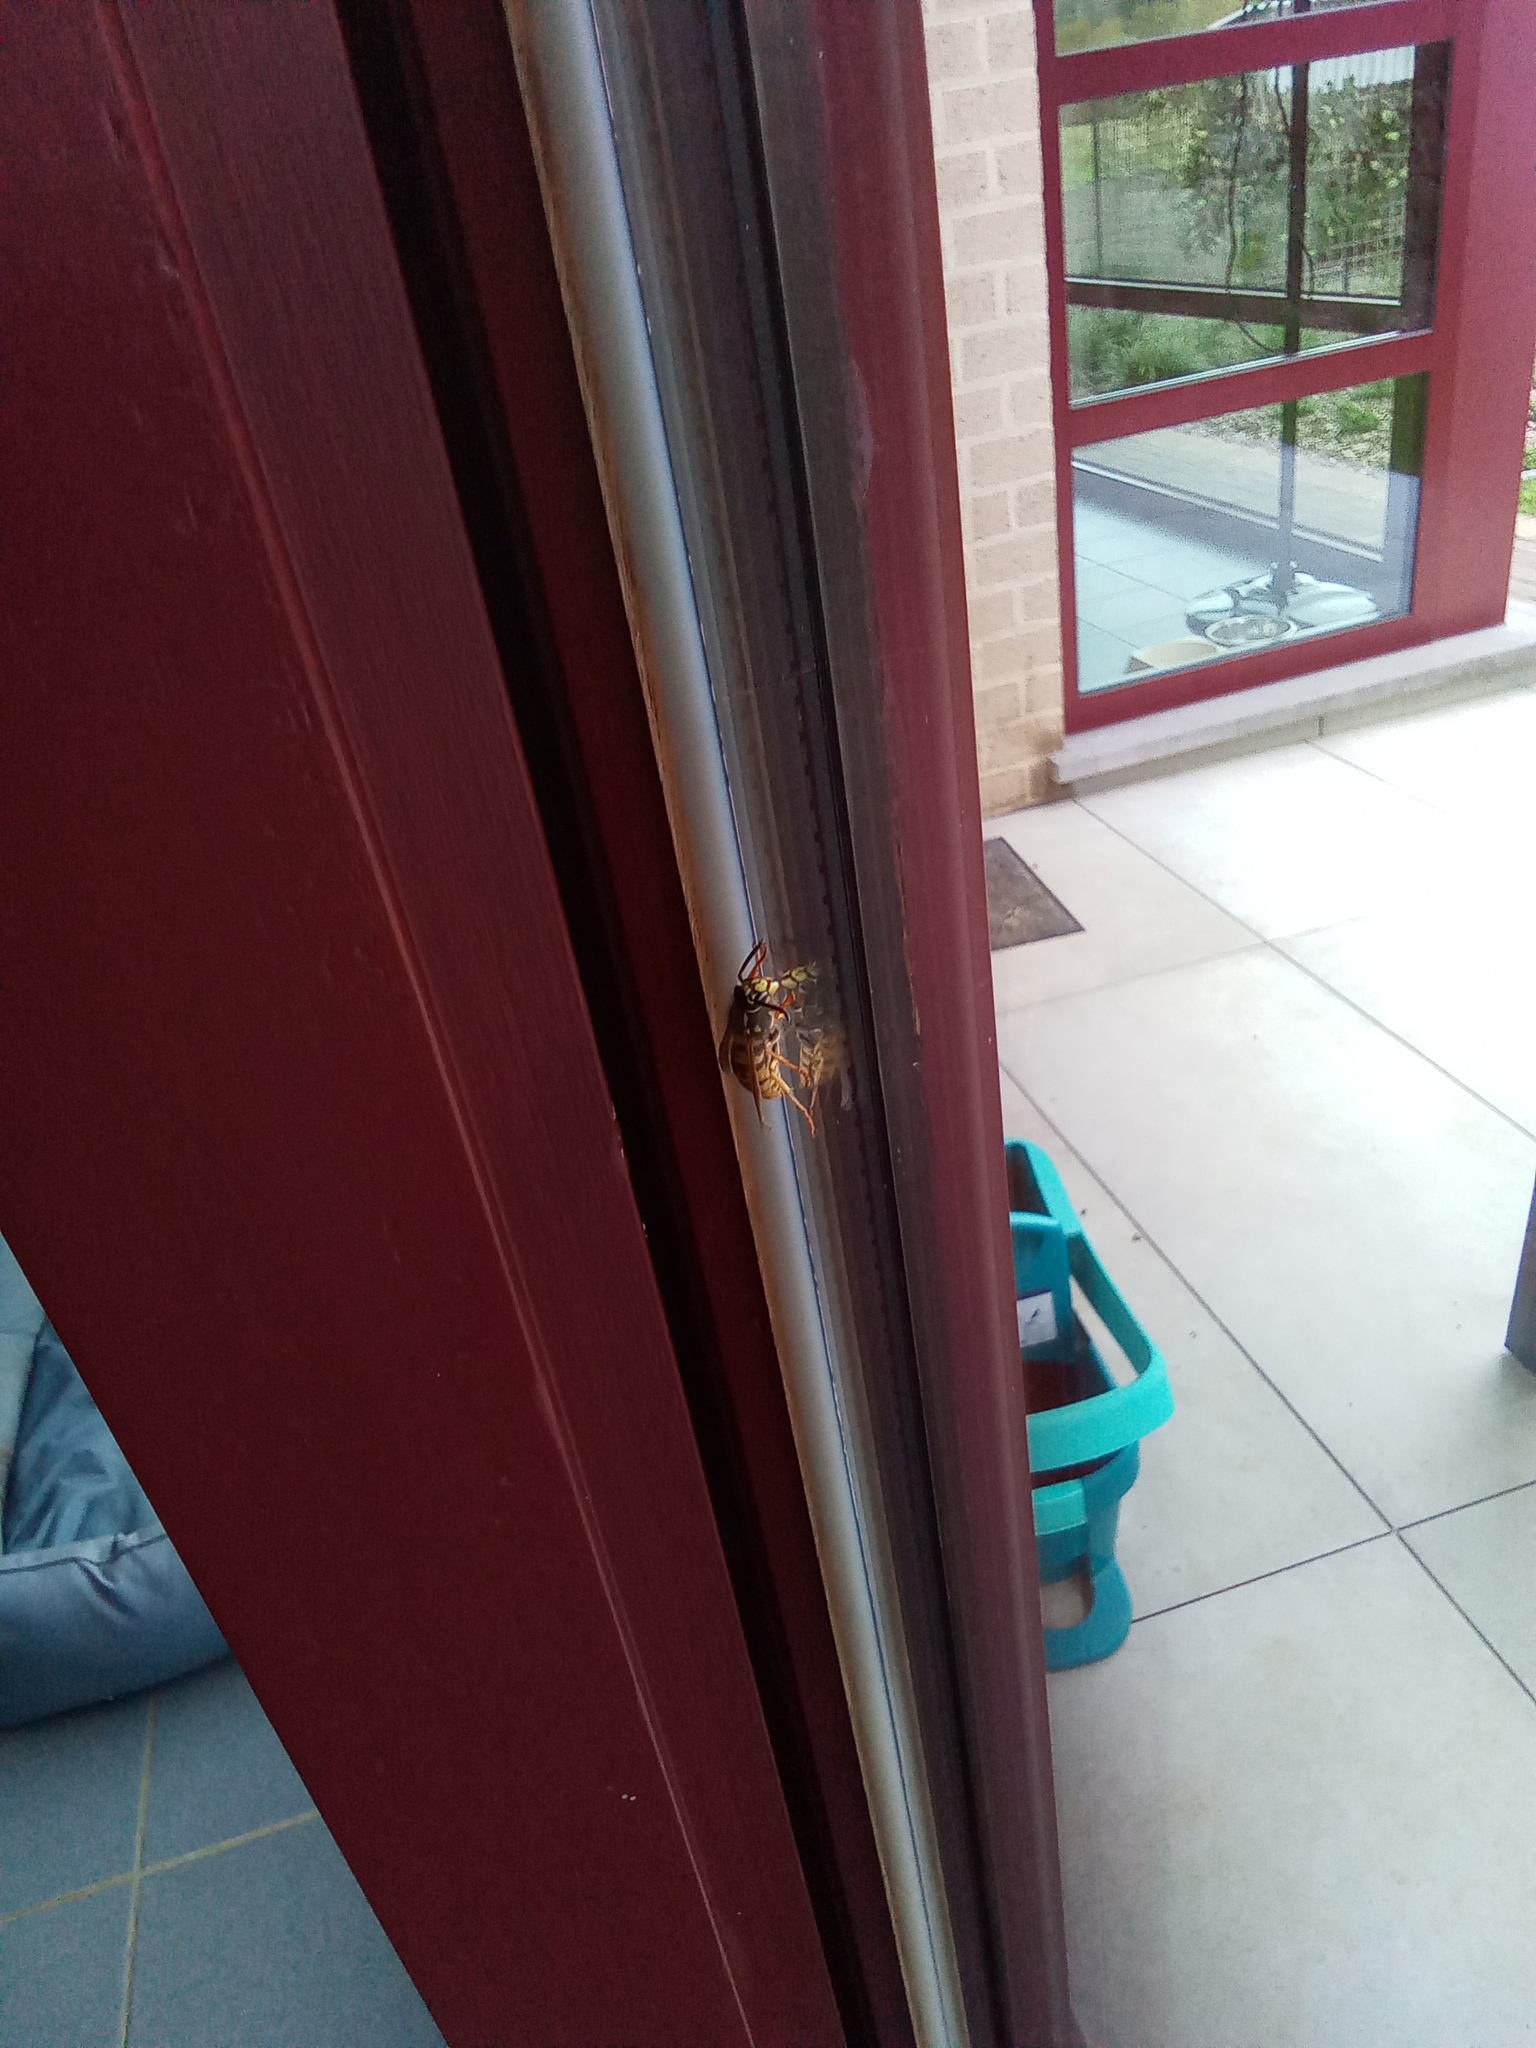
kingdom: Animalia
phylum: Arthropoda
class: Insecta
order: Hymenoptera
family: Vespidae
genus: Vespula
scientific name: Vespula vulgaris
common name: Common wasp
